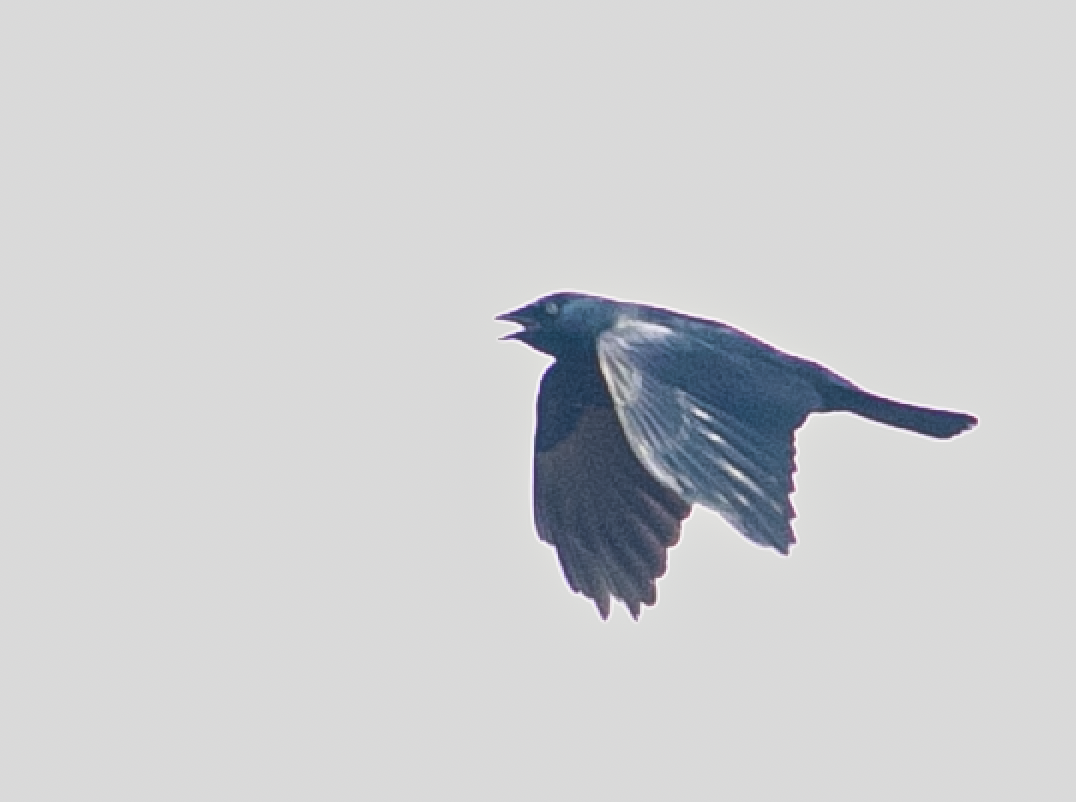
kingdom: Animalia
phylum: Chordata
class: Aves
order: Passeriformes
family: Corvidae
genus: Coloeus
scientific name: Coloeus monedula
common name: Western jackdaw
